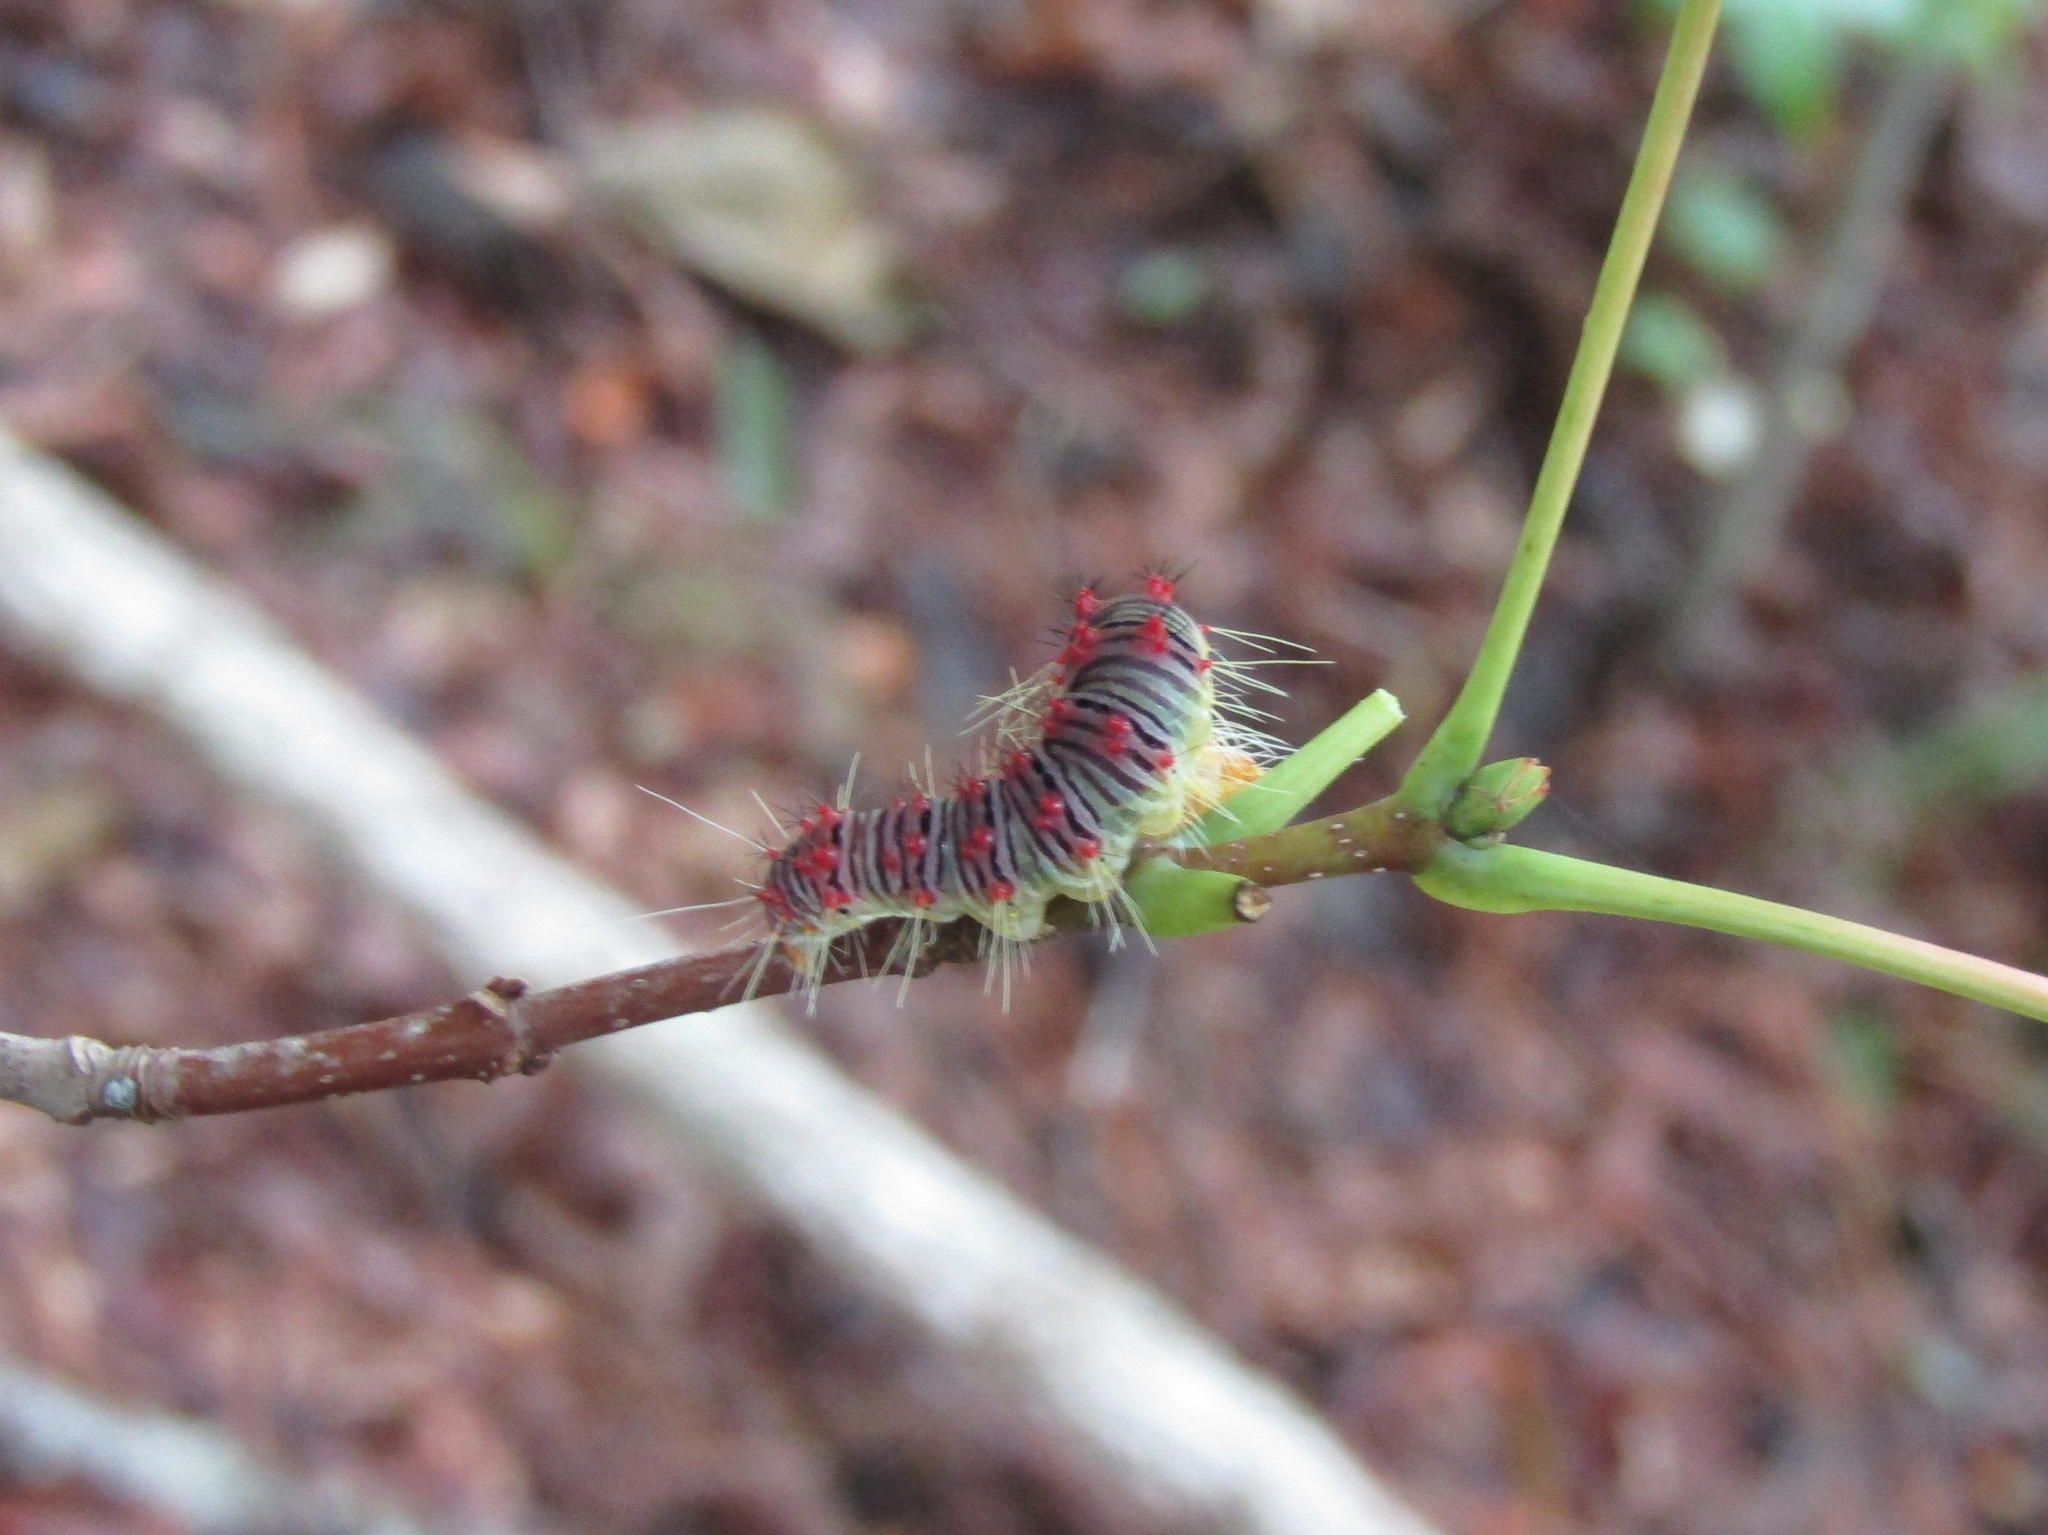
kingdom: Animalia
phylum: Arthropoda
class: Insecta
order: Lepidoptera
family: Noctuidae
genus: Acronicta
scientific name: Acronicta retardata
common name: Maple dagger
